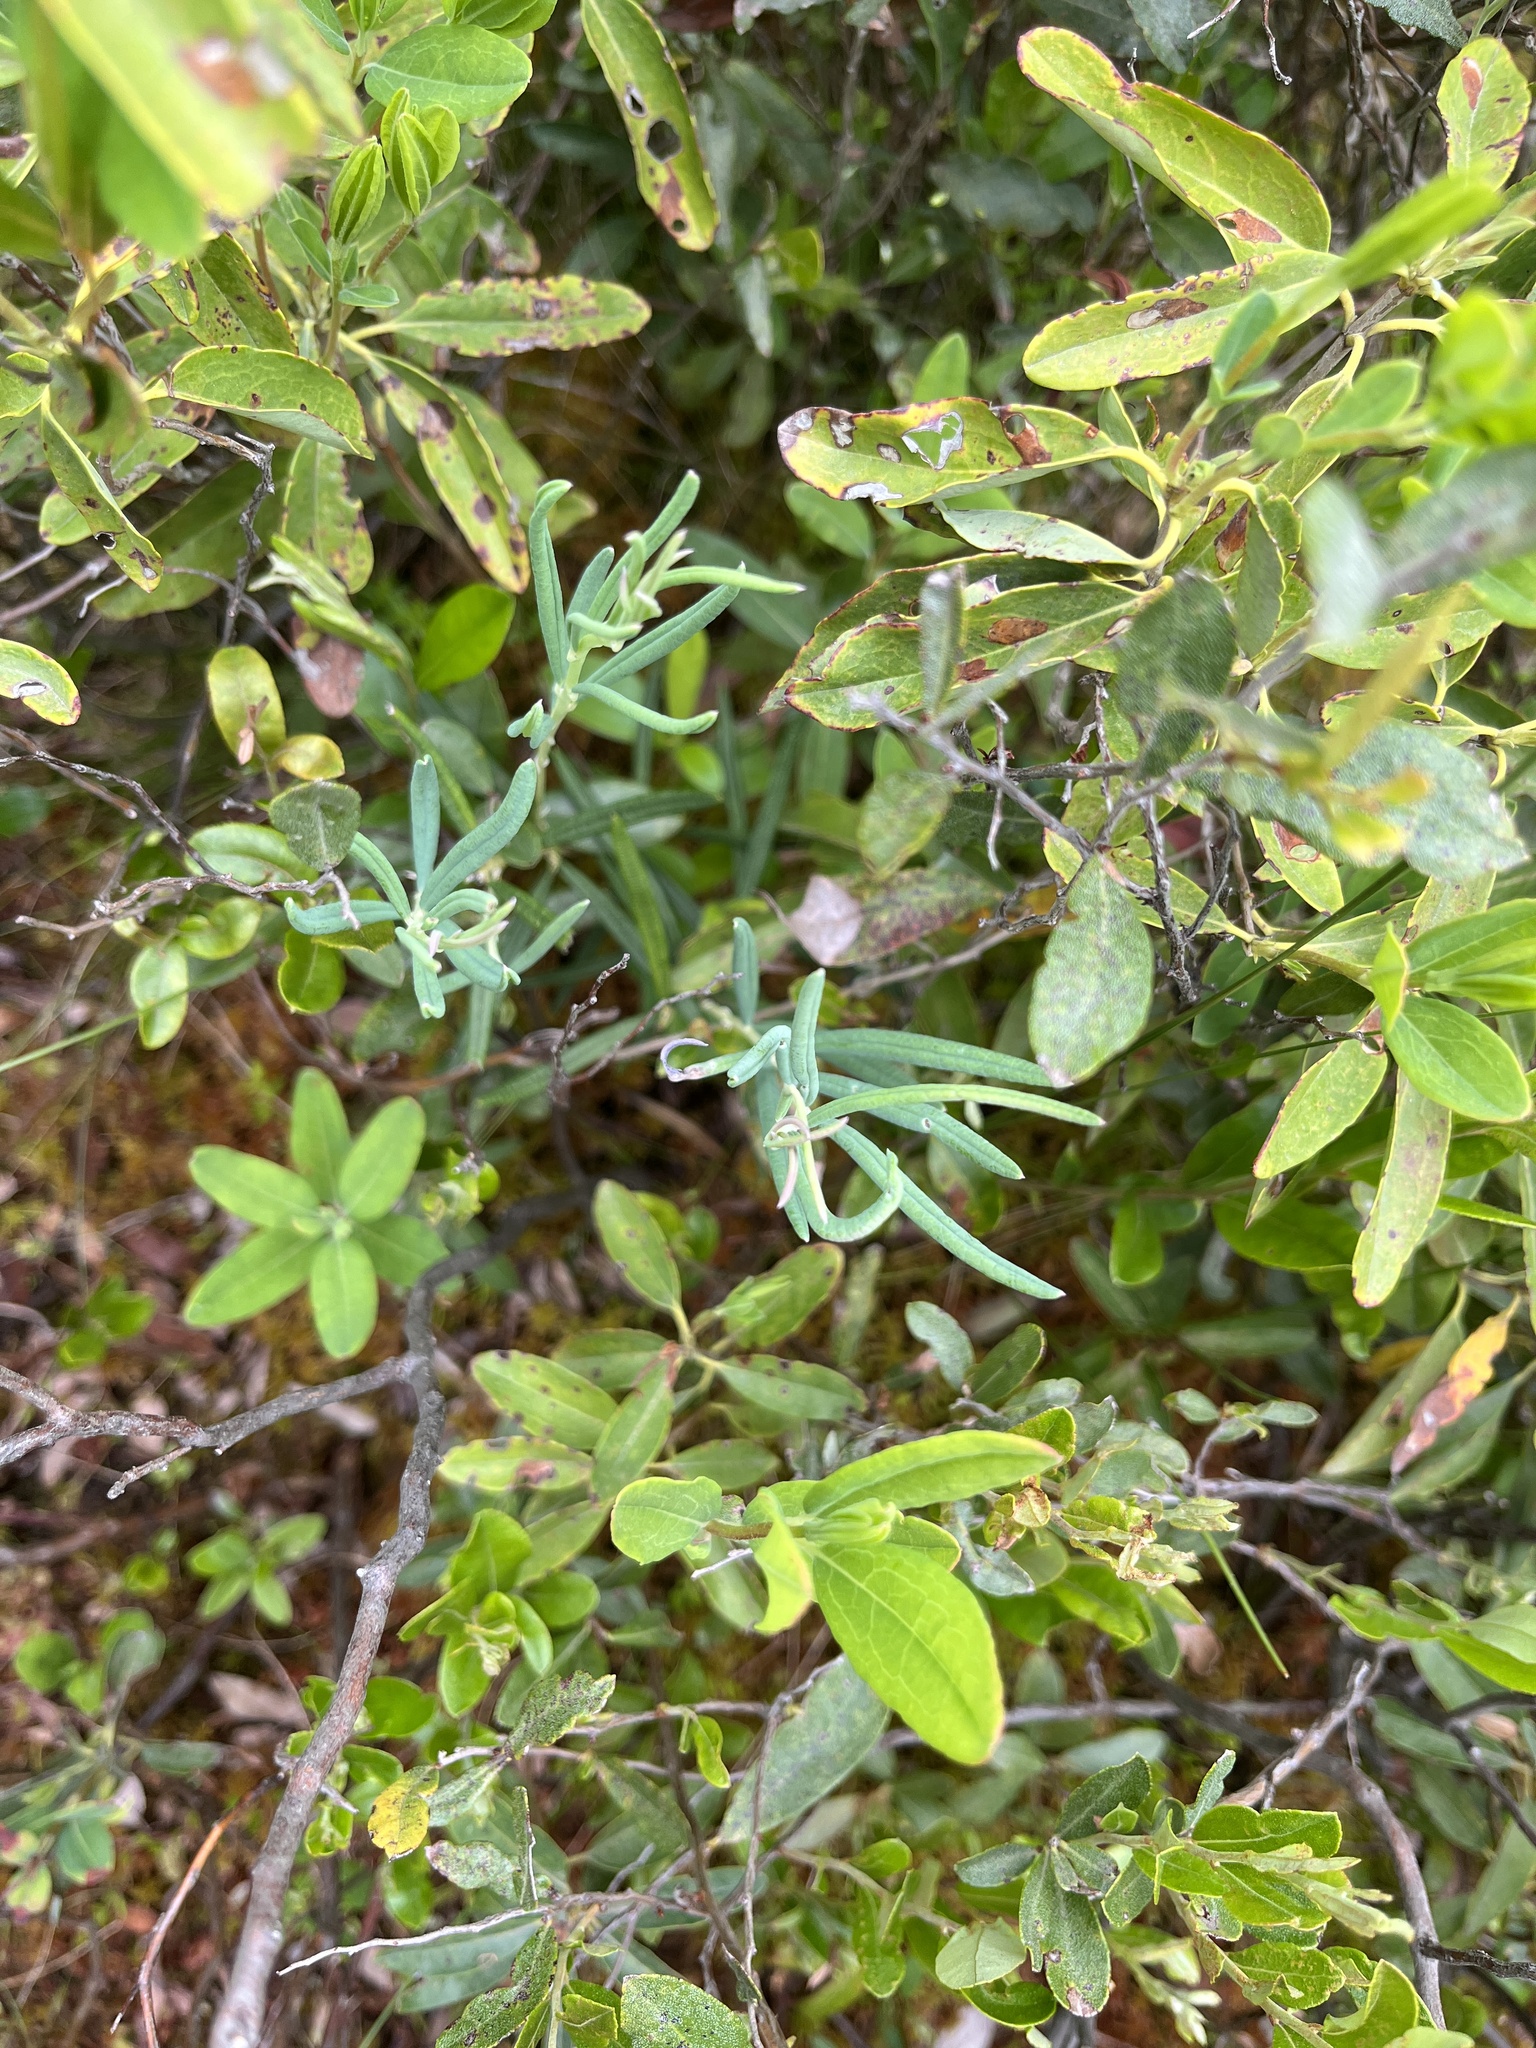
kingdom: Plantae
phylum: Tracheophyta
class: Magnoliopsida
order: Ericales
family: Ericaceae
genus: Andromeda
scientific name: Andromeda polifolia
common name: Bog-rosemary
